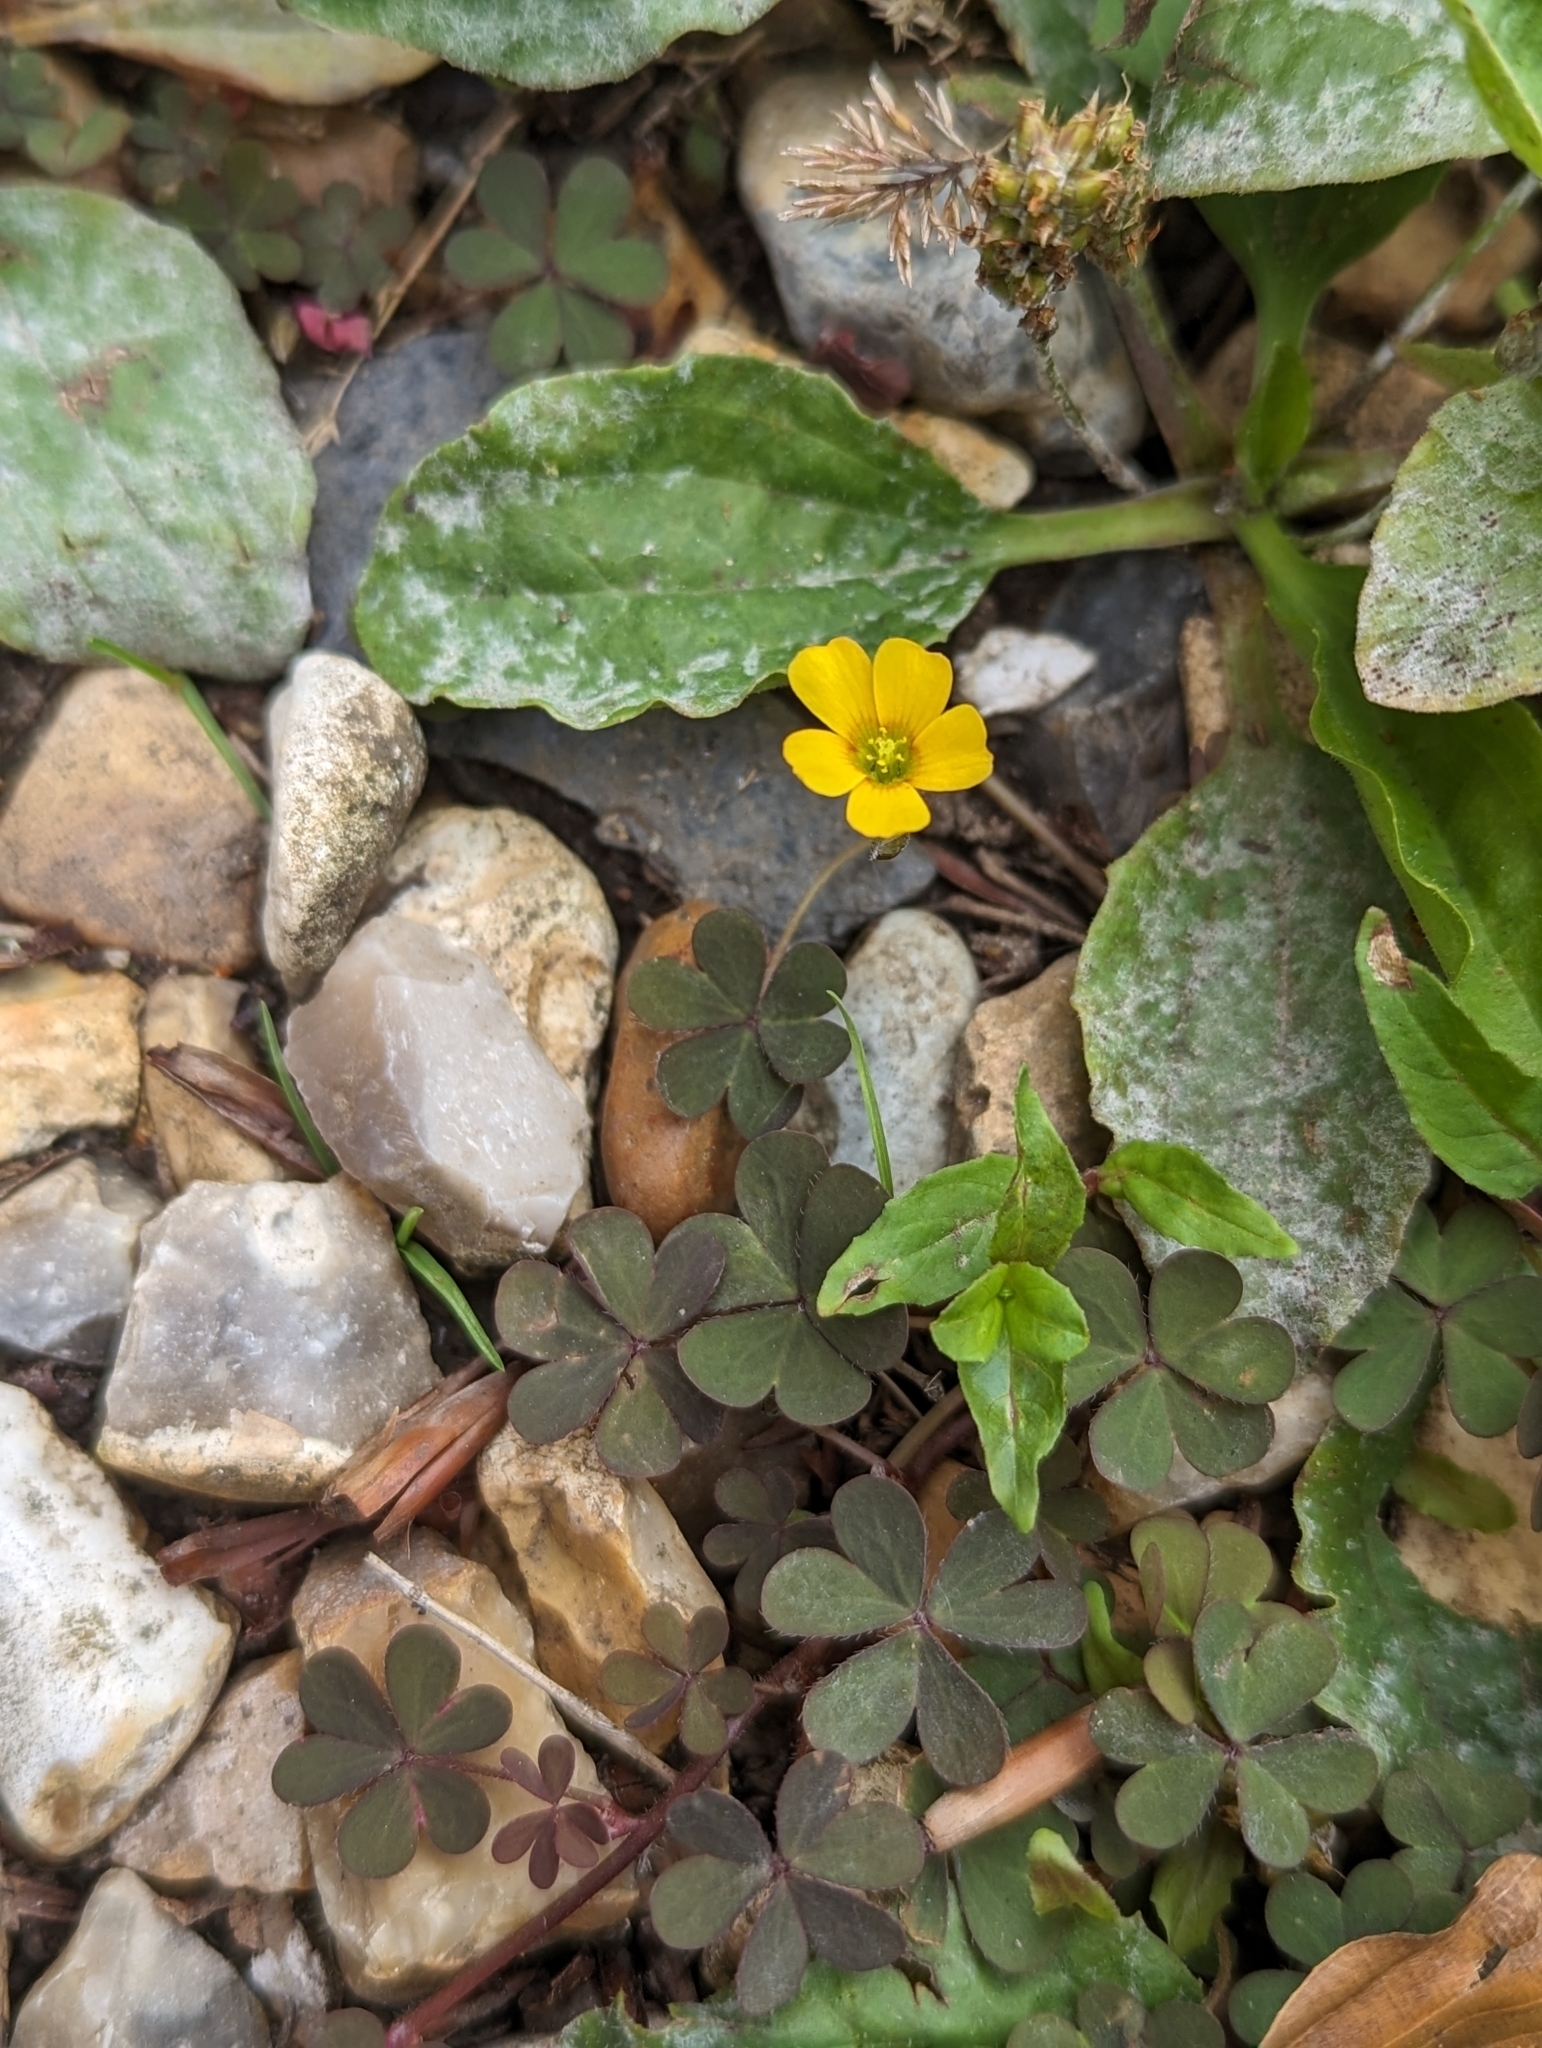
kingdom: Plantae
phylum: Tracheophyta
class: Magnoliopsida
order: Oxalidales
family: Oxalidaceae
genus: Oxalis
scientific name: Oxalis corniculata
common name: Procumbent yellow-sorrel
